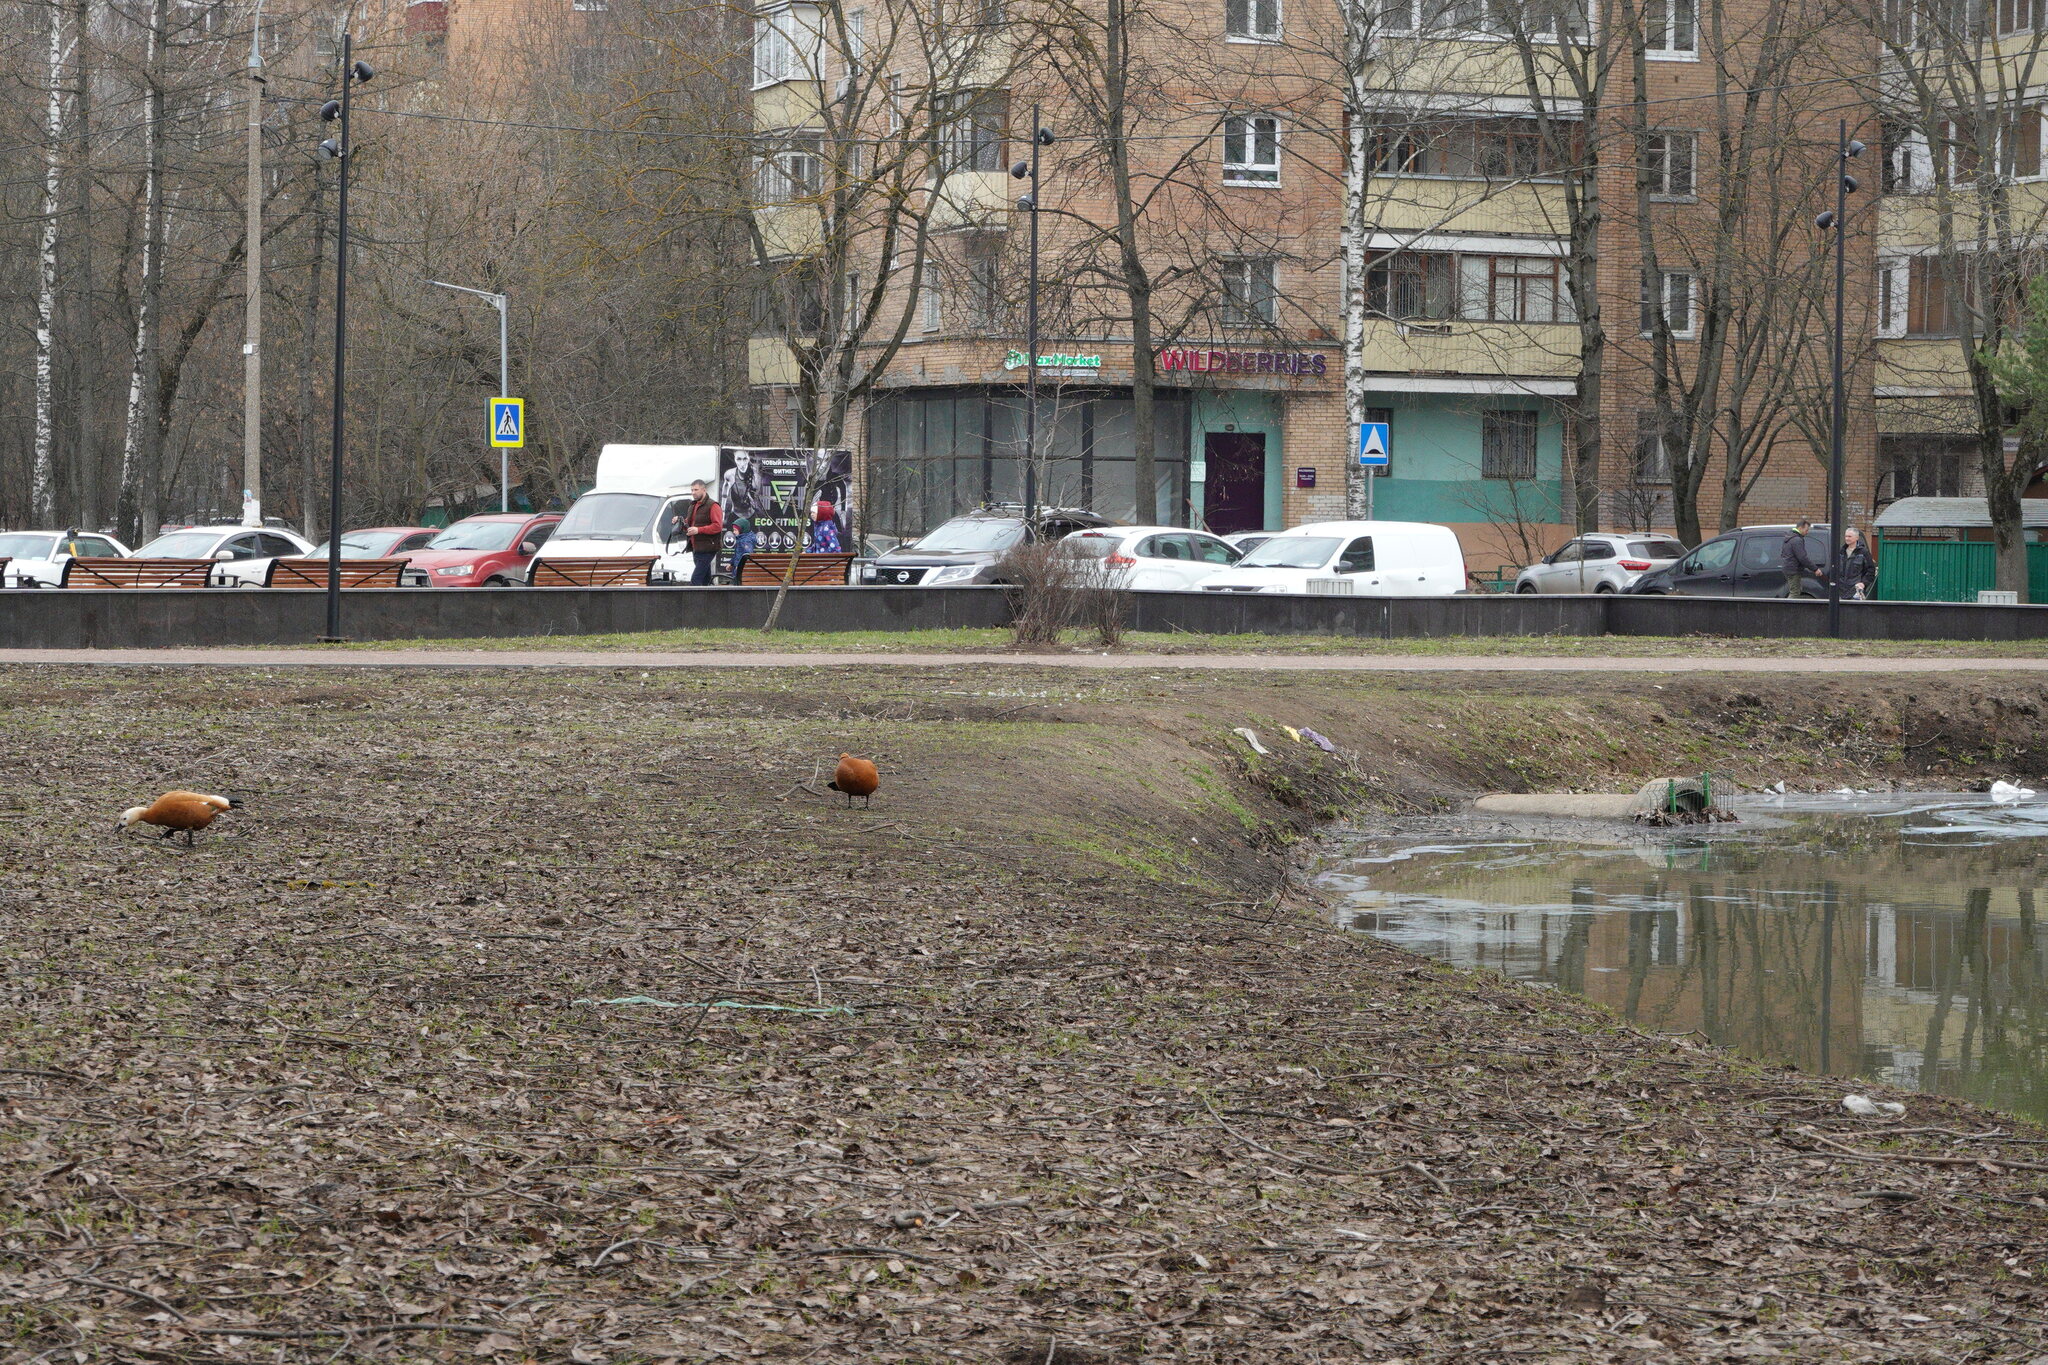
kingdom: Animalia
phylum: Chordata
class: Aves
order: Anseriformes
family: Anatidae
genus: Tadorna
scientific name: Tadorna ferruginea
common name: Ruddy shelduck
